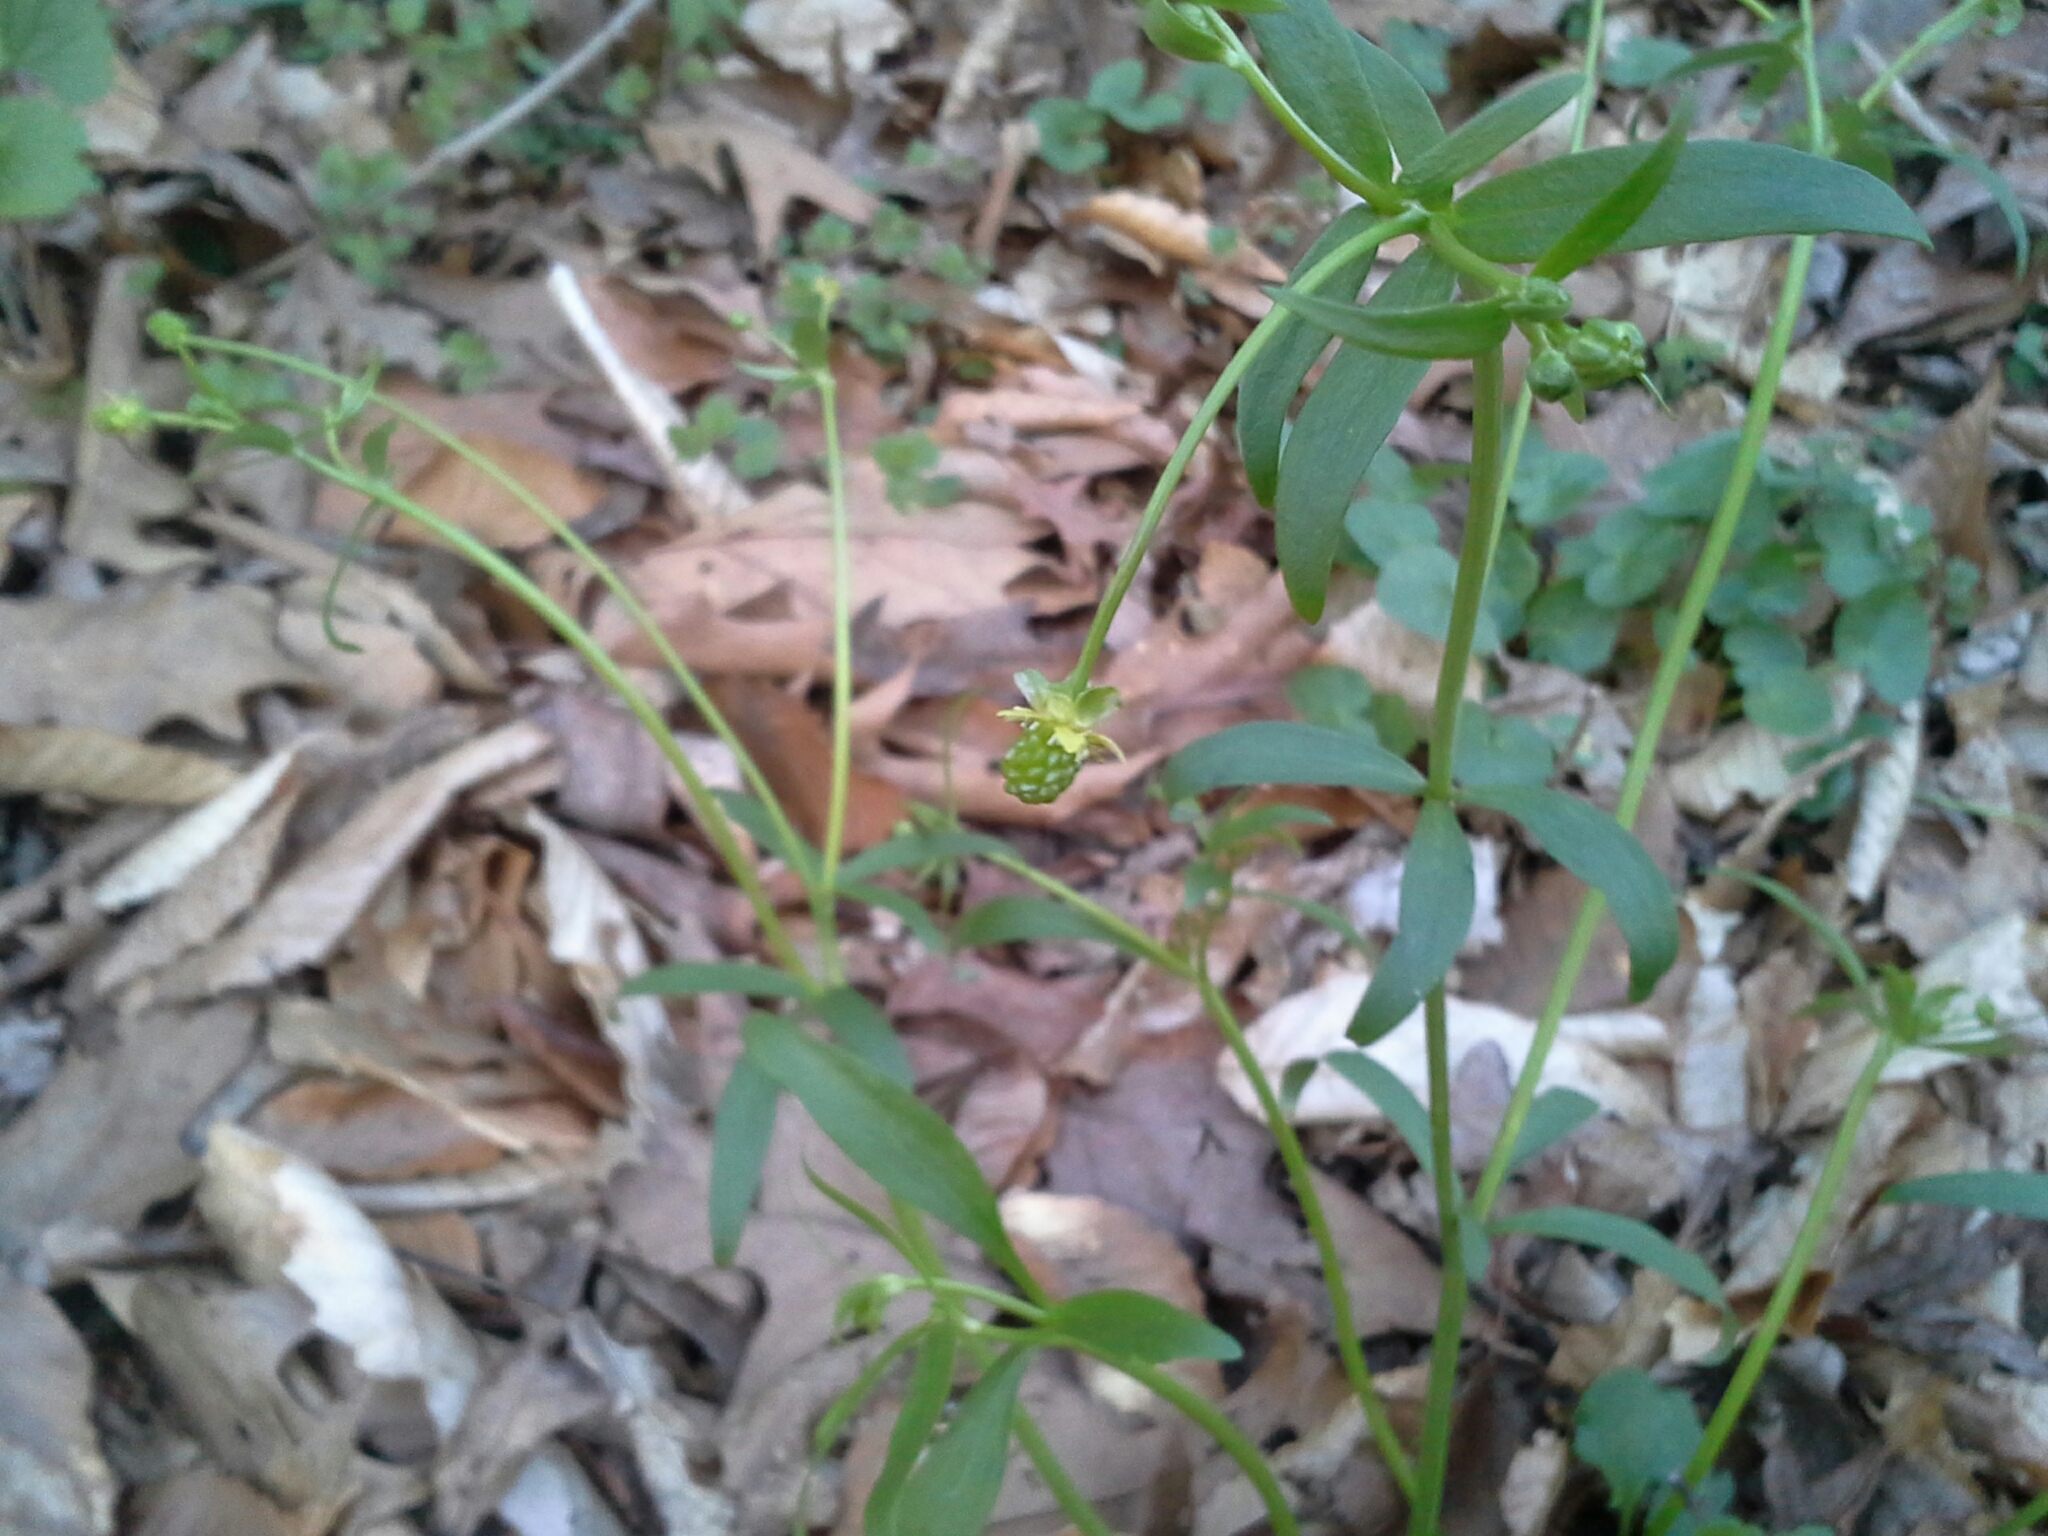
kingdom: Plantae
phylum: Tracheophyta
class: Magnoliopsida
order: Ranunculales
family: Ranunculaceae
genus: Ranunculus
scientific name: Ranunculus abortivus
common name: Early wood buttercup
